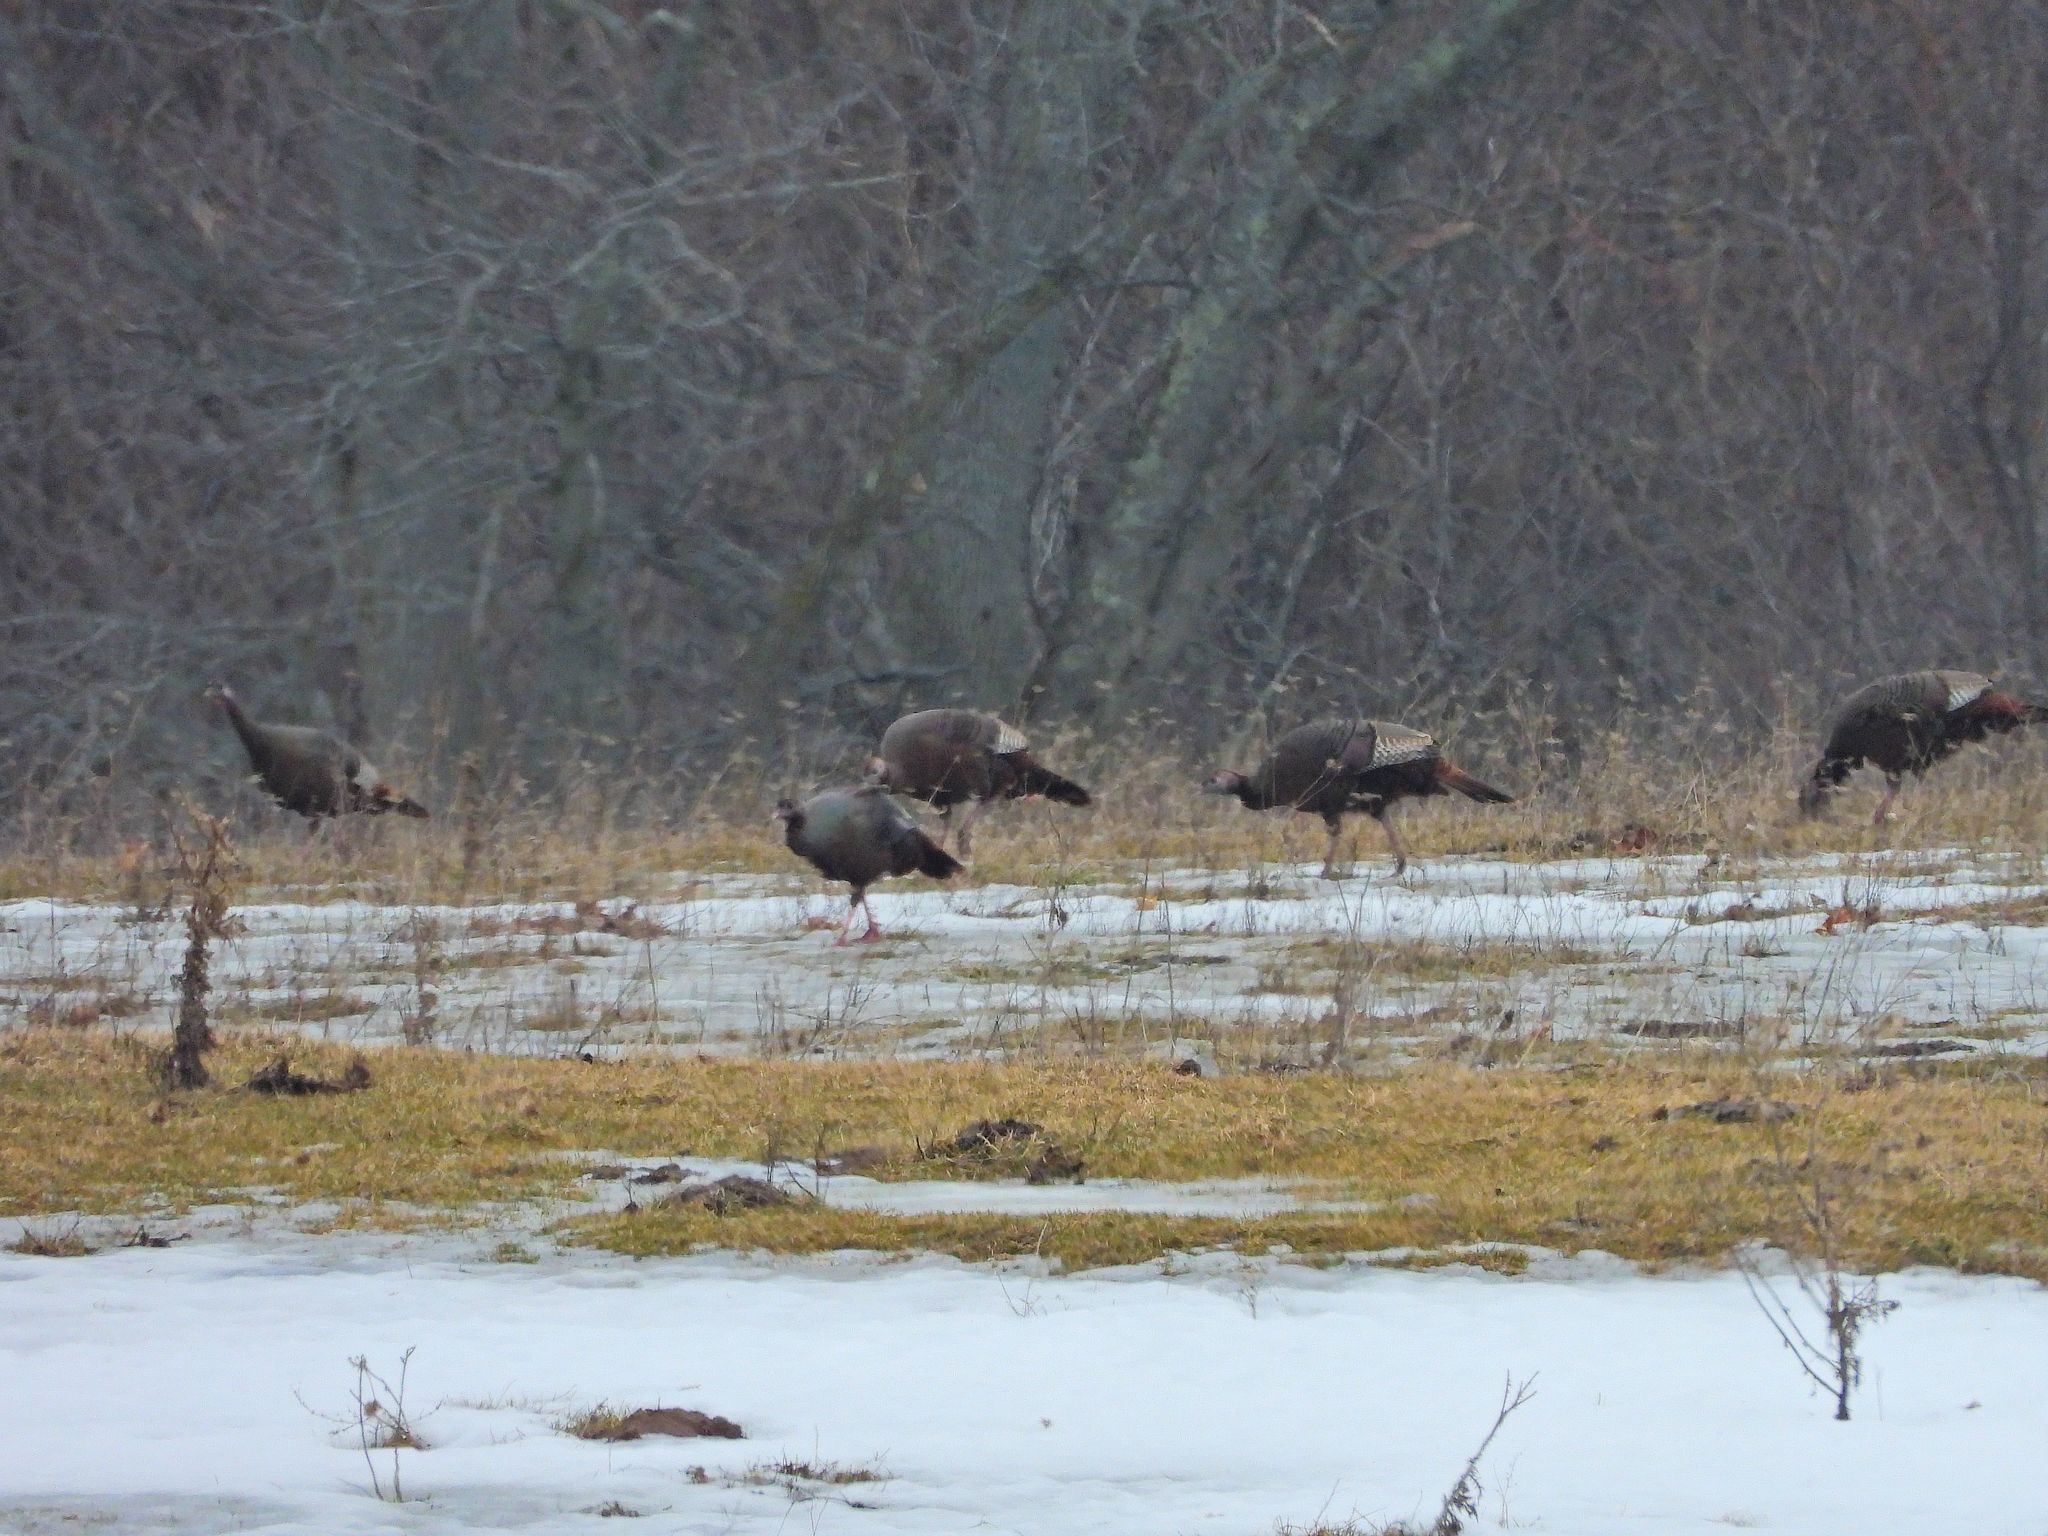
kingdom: Animalia
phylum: Chordata
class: Aves
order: Galliformes
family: Phasianidae
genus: Meleagris
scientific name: Meleagris gallopavo
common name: Wild turkey
